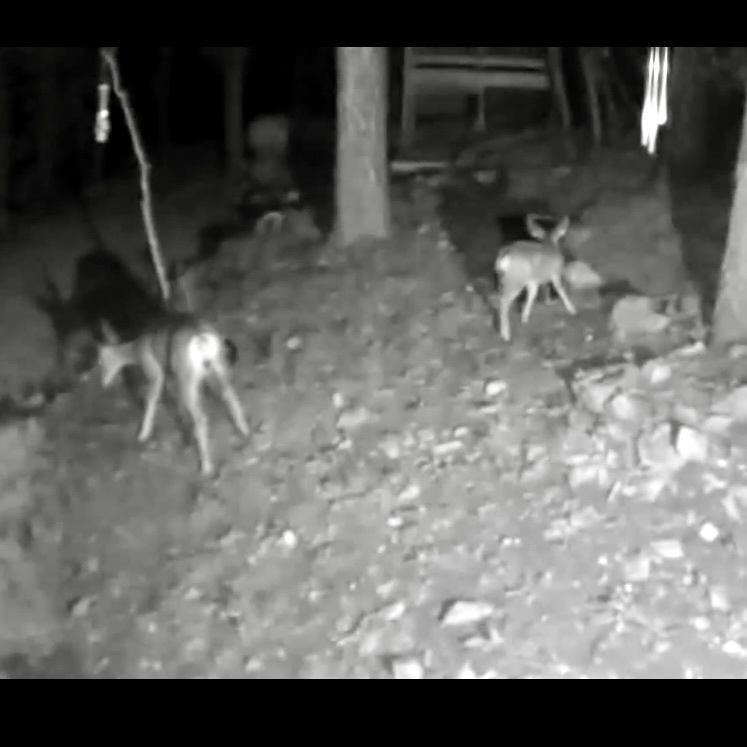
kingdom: Animalia
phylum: Chordata
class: Mammalia
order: Artiodactyla
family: Cervidae
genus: Odocoileus
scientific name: Odocoileus hemionus
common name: Mule deer
